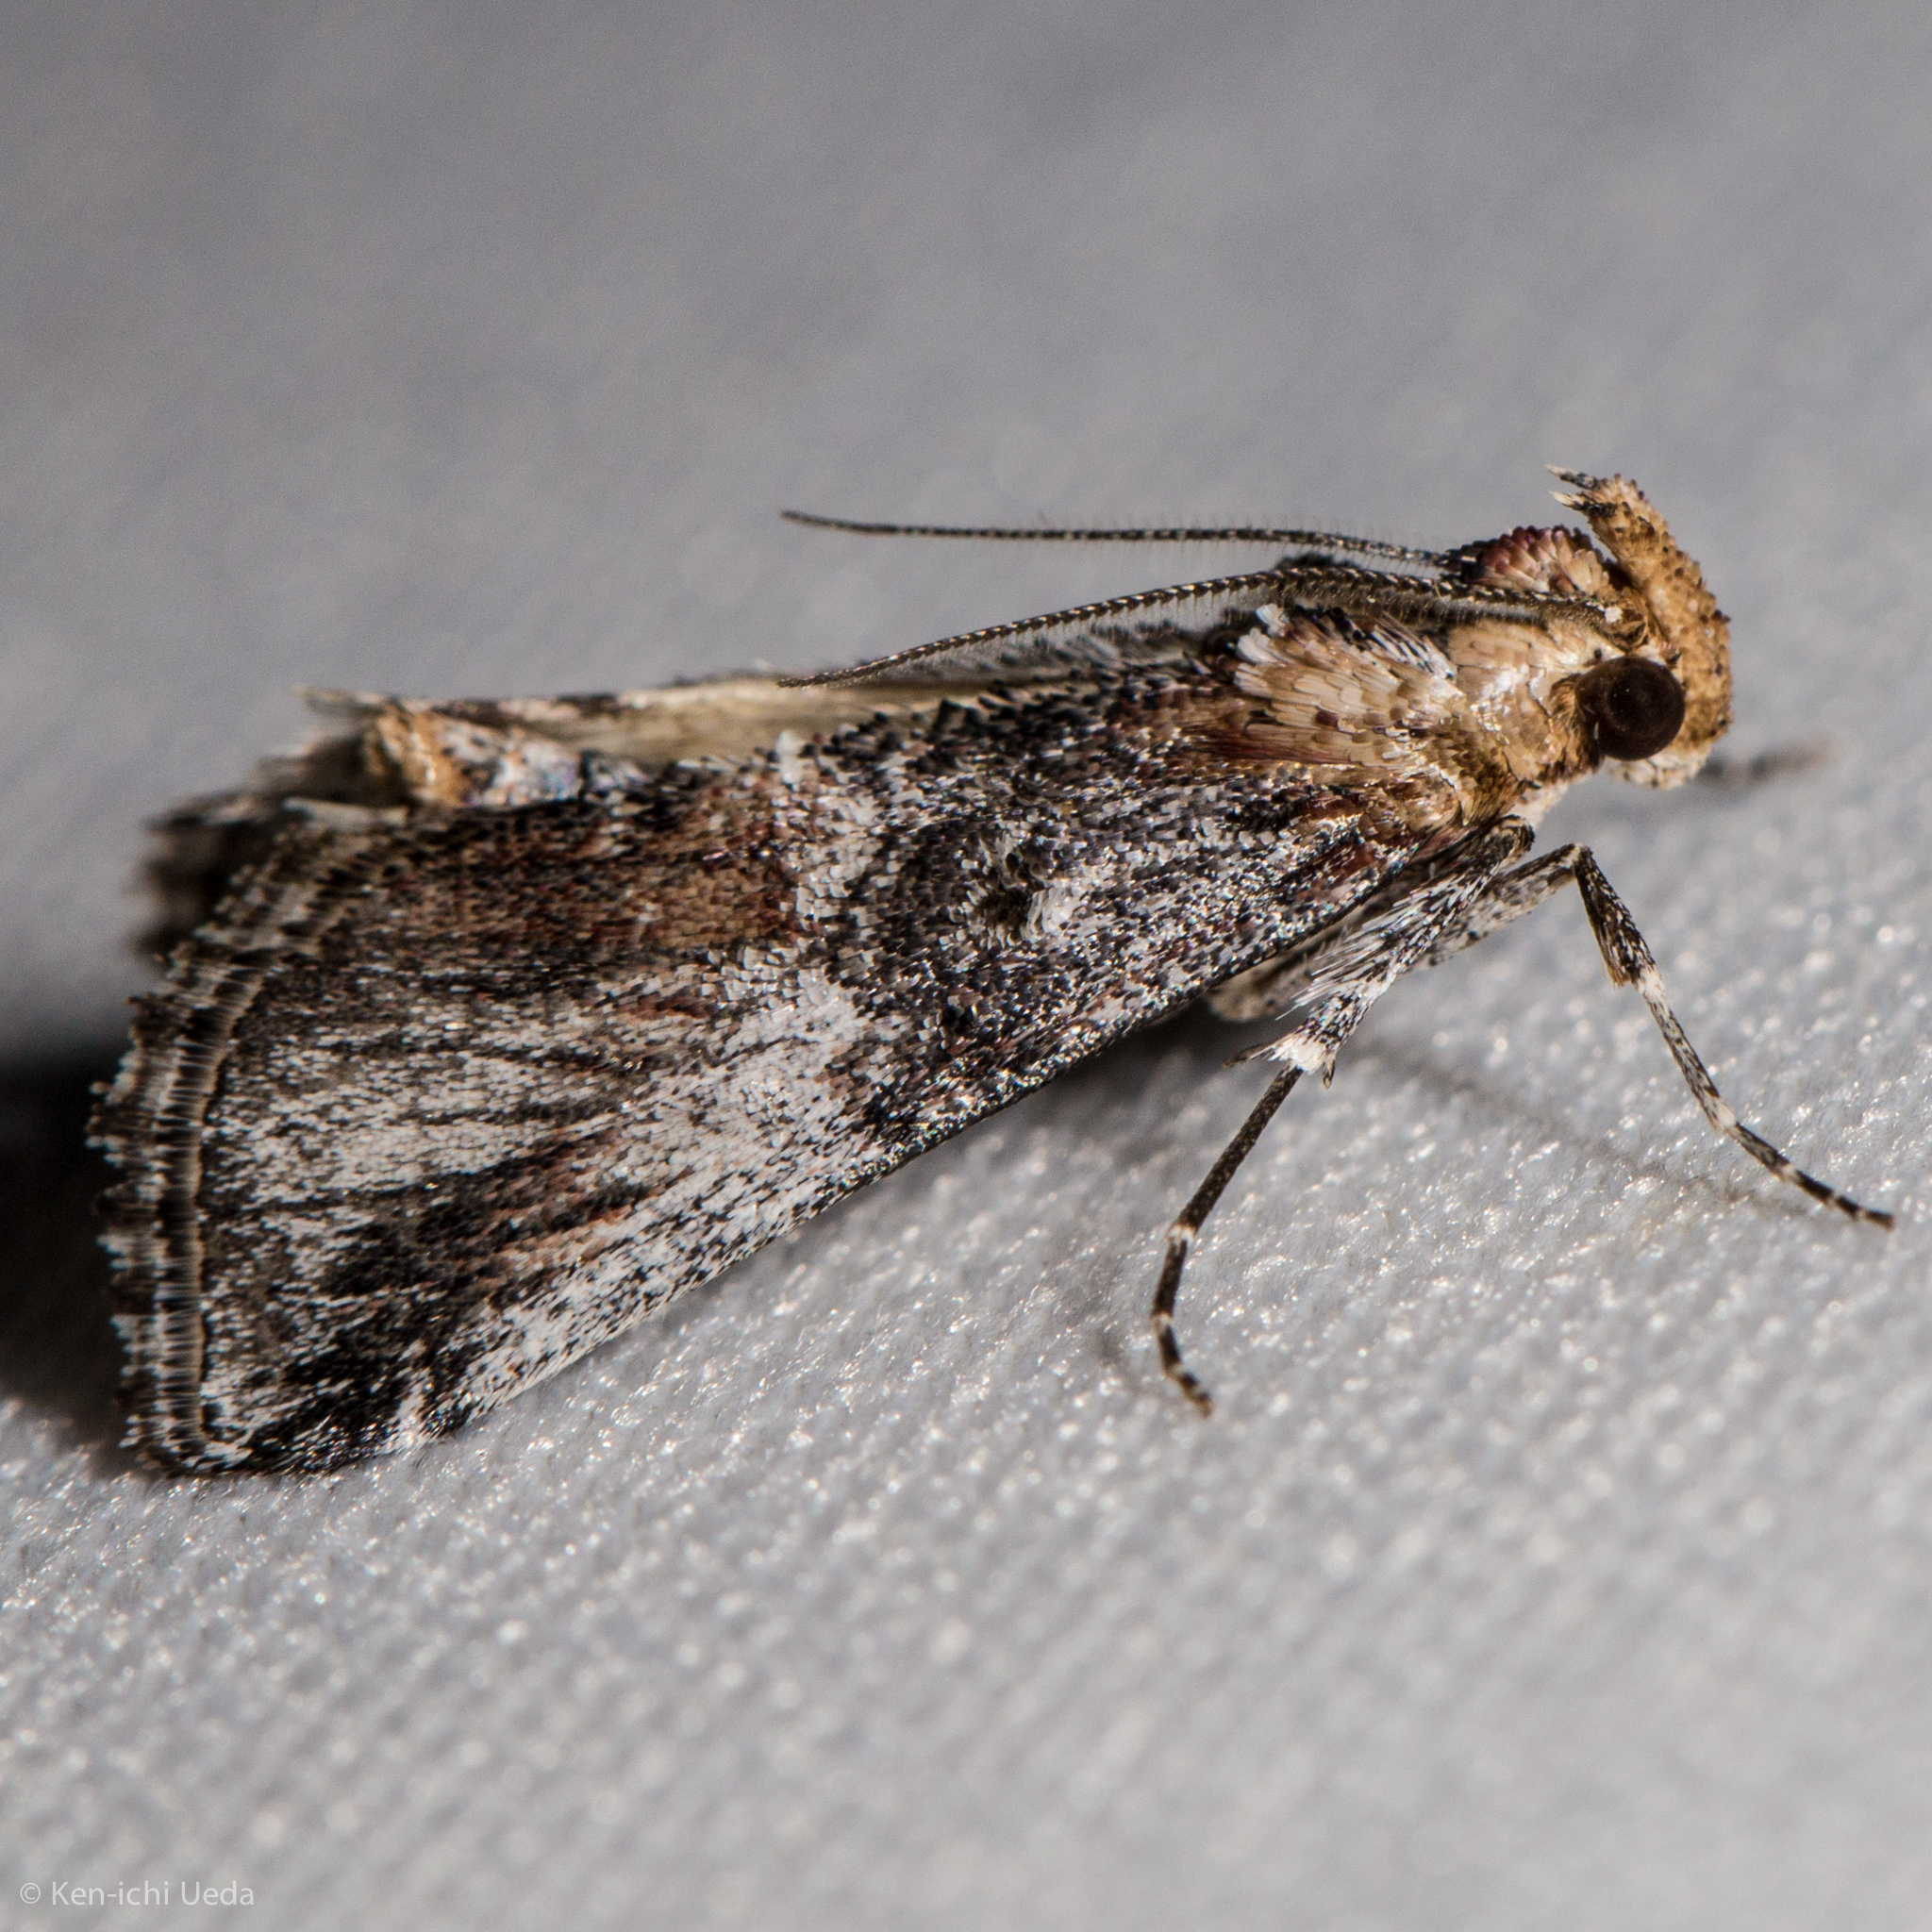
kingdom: Animalia
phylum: Arthropoda
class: Insecta
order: Lepidoptera
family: Pyralidae
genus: Toripalpus
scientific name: Toripalpus trabalis
